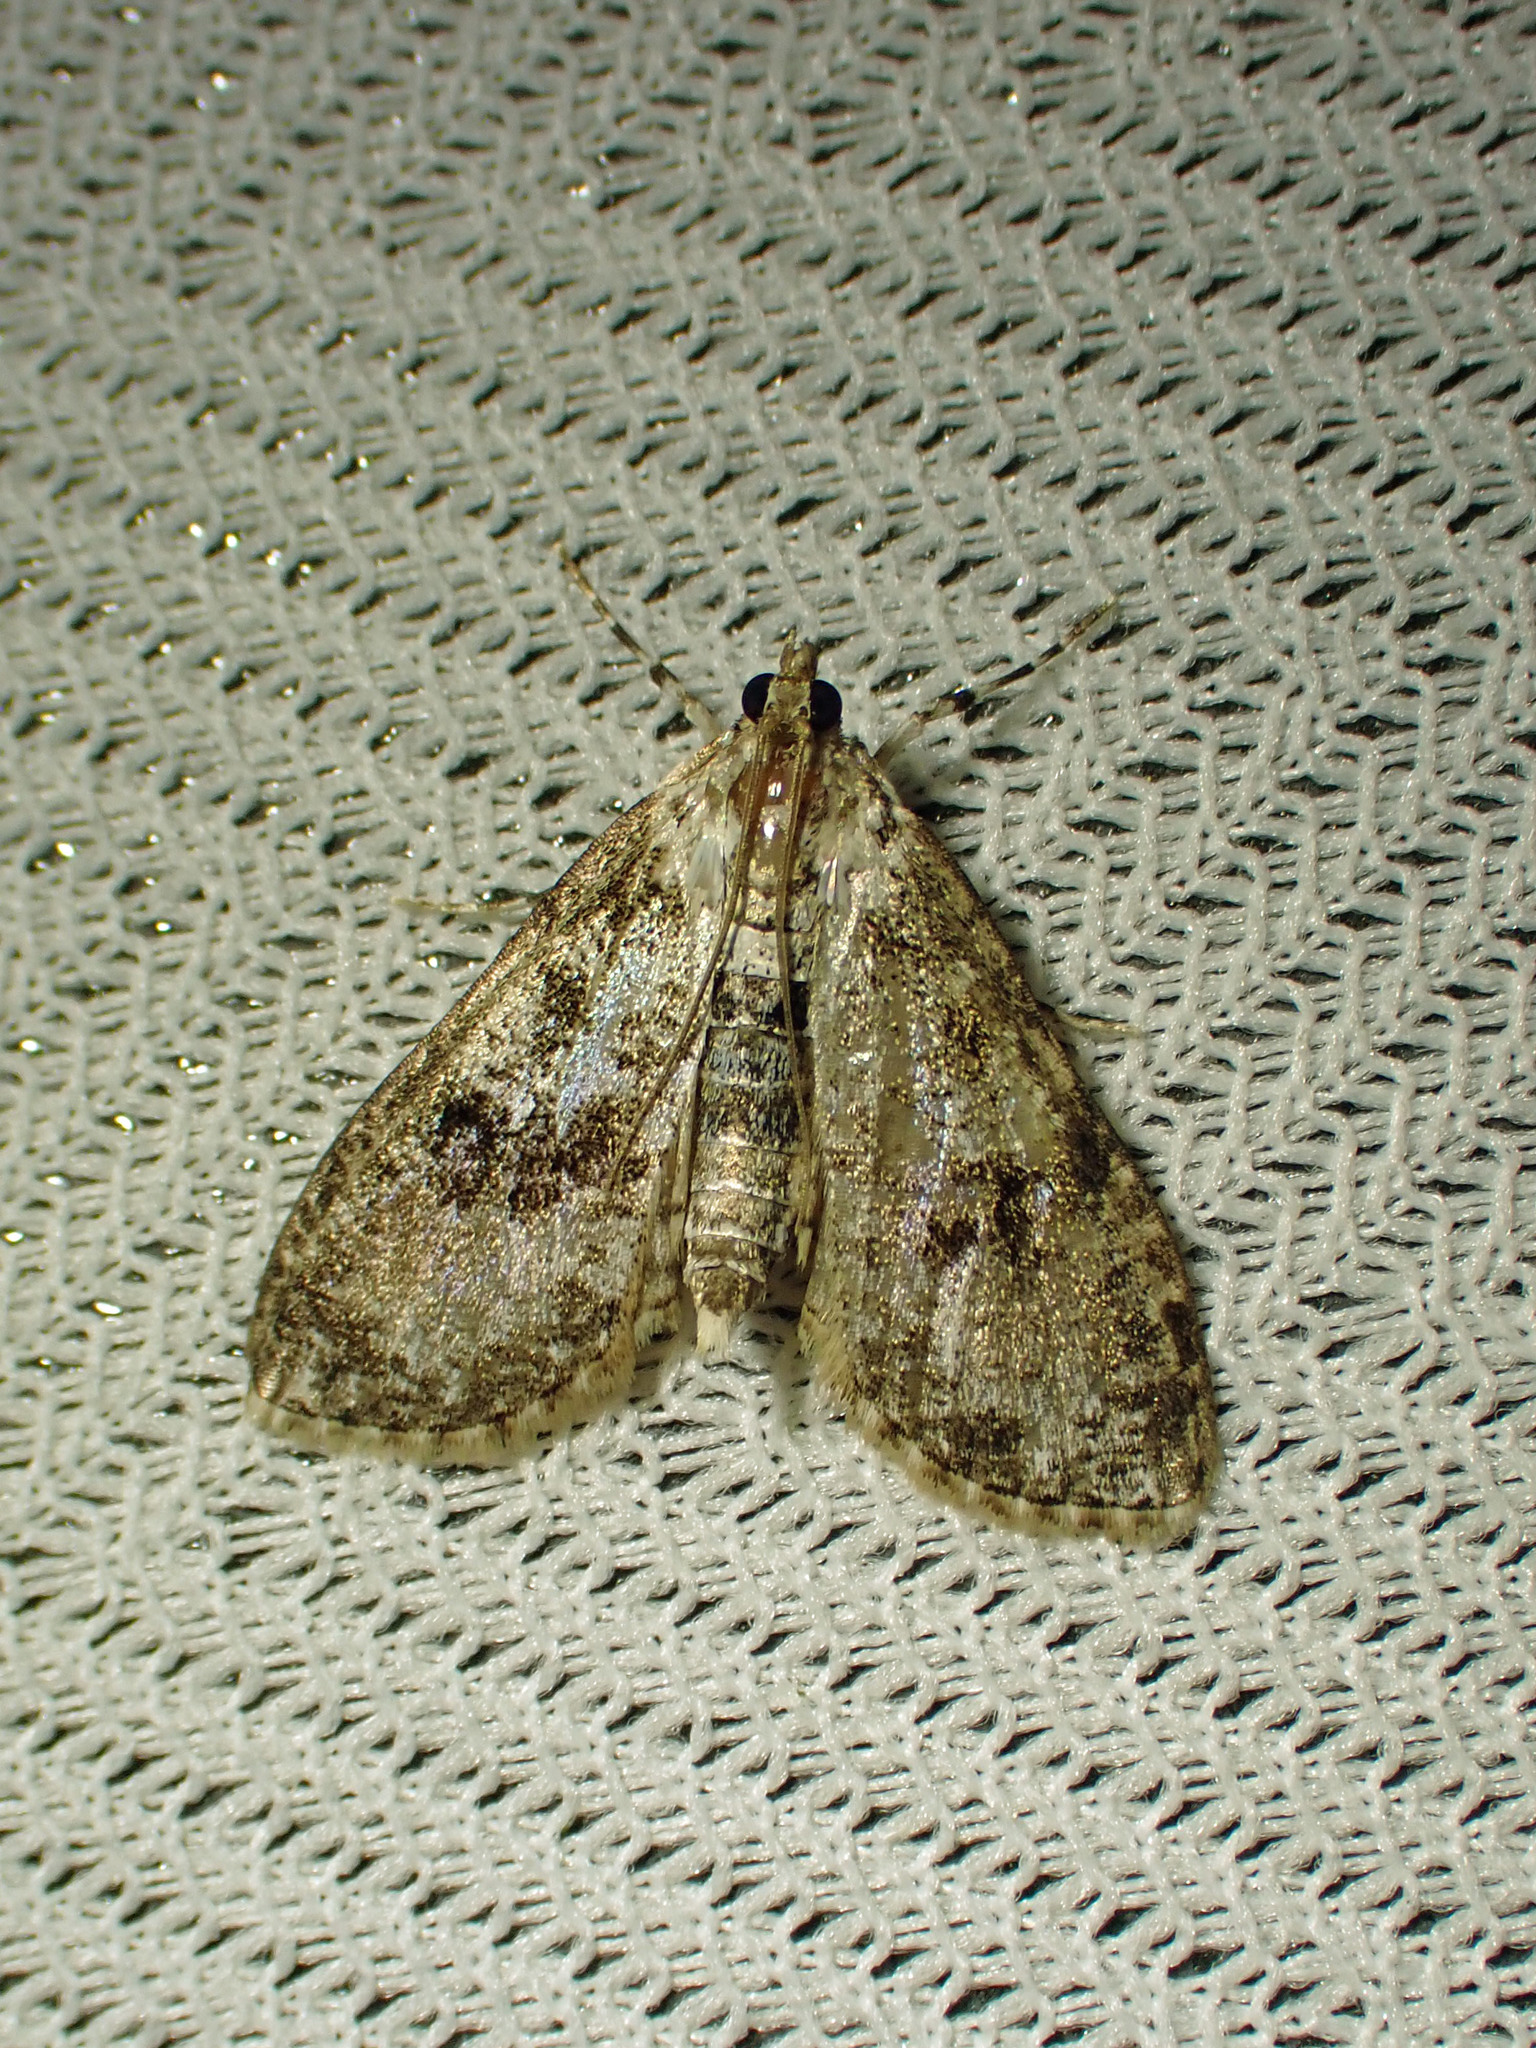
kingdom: Animalia
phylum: Arthropoda
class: Insecta
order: Lepidoptera
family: Crambidae
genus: Palpita
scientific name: Palpita magniferalis
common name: Splendid palpita moth
